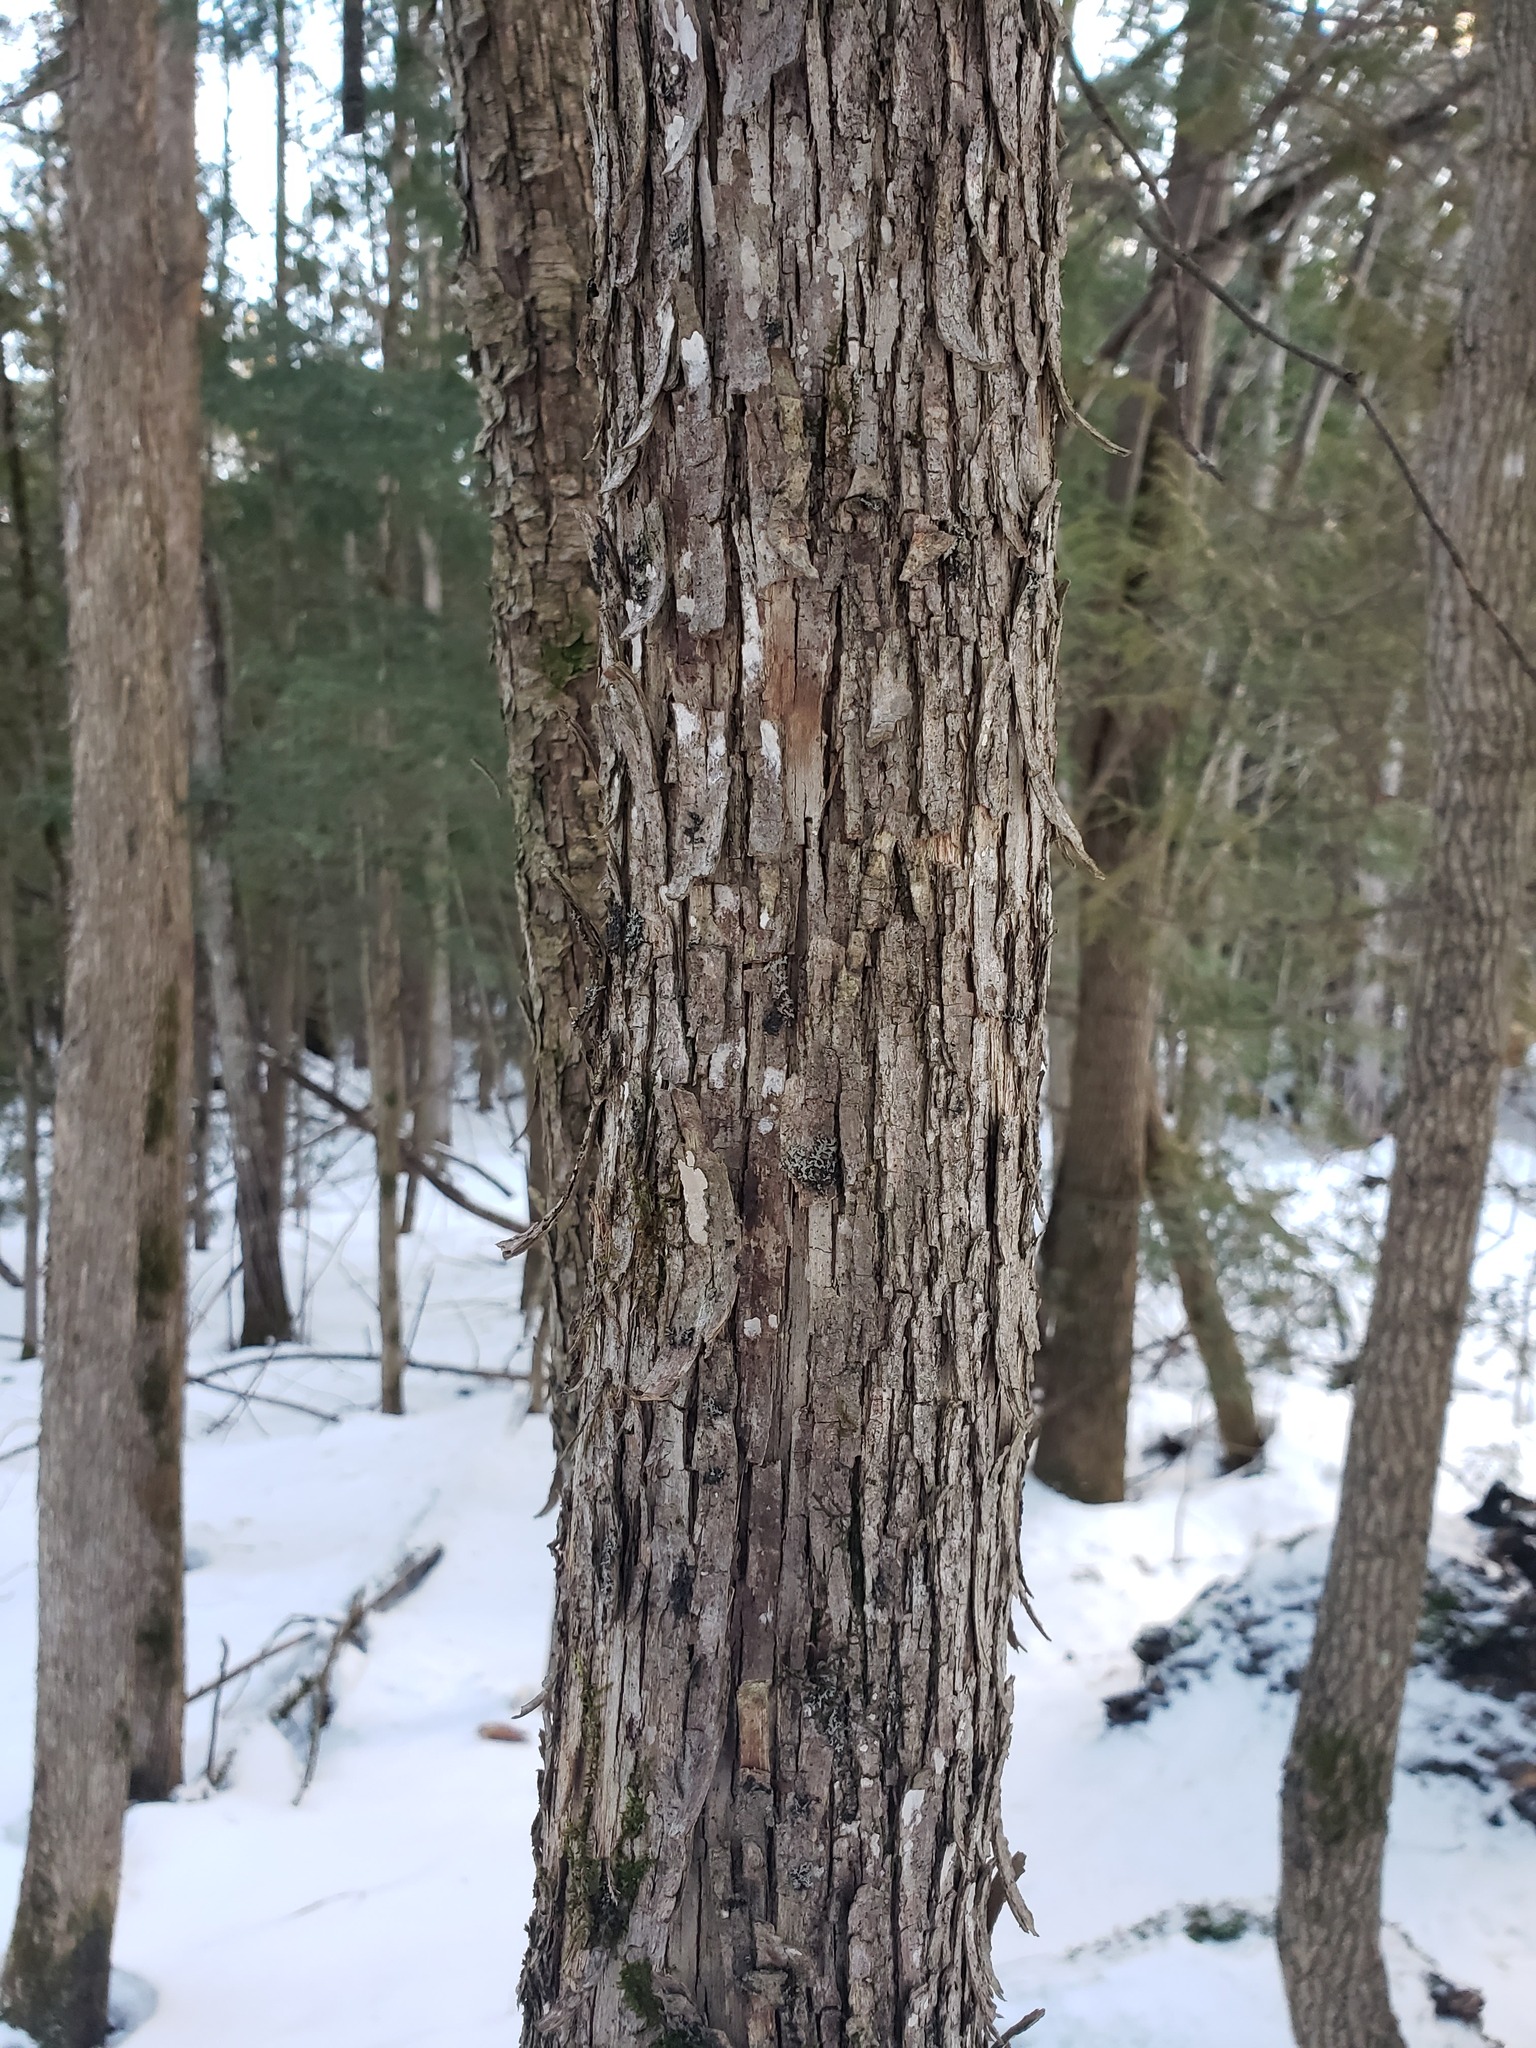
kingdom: Plantae
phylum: Tracheophyta
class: Magnoliopsida
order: Fagales
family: Betulaceae
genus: Ostrya
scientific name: Ostrya virginiana
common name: Ironwood
